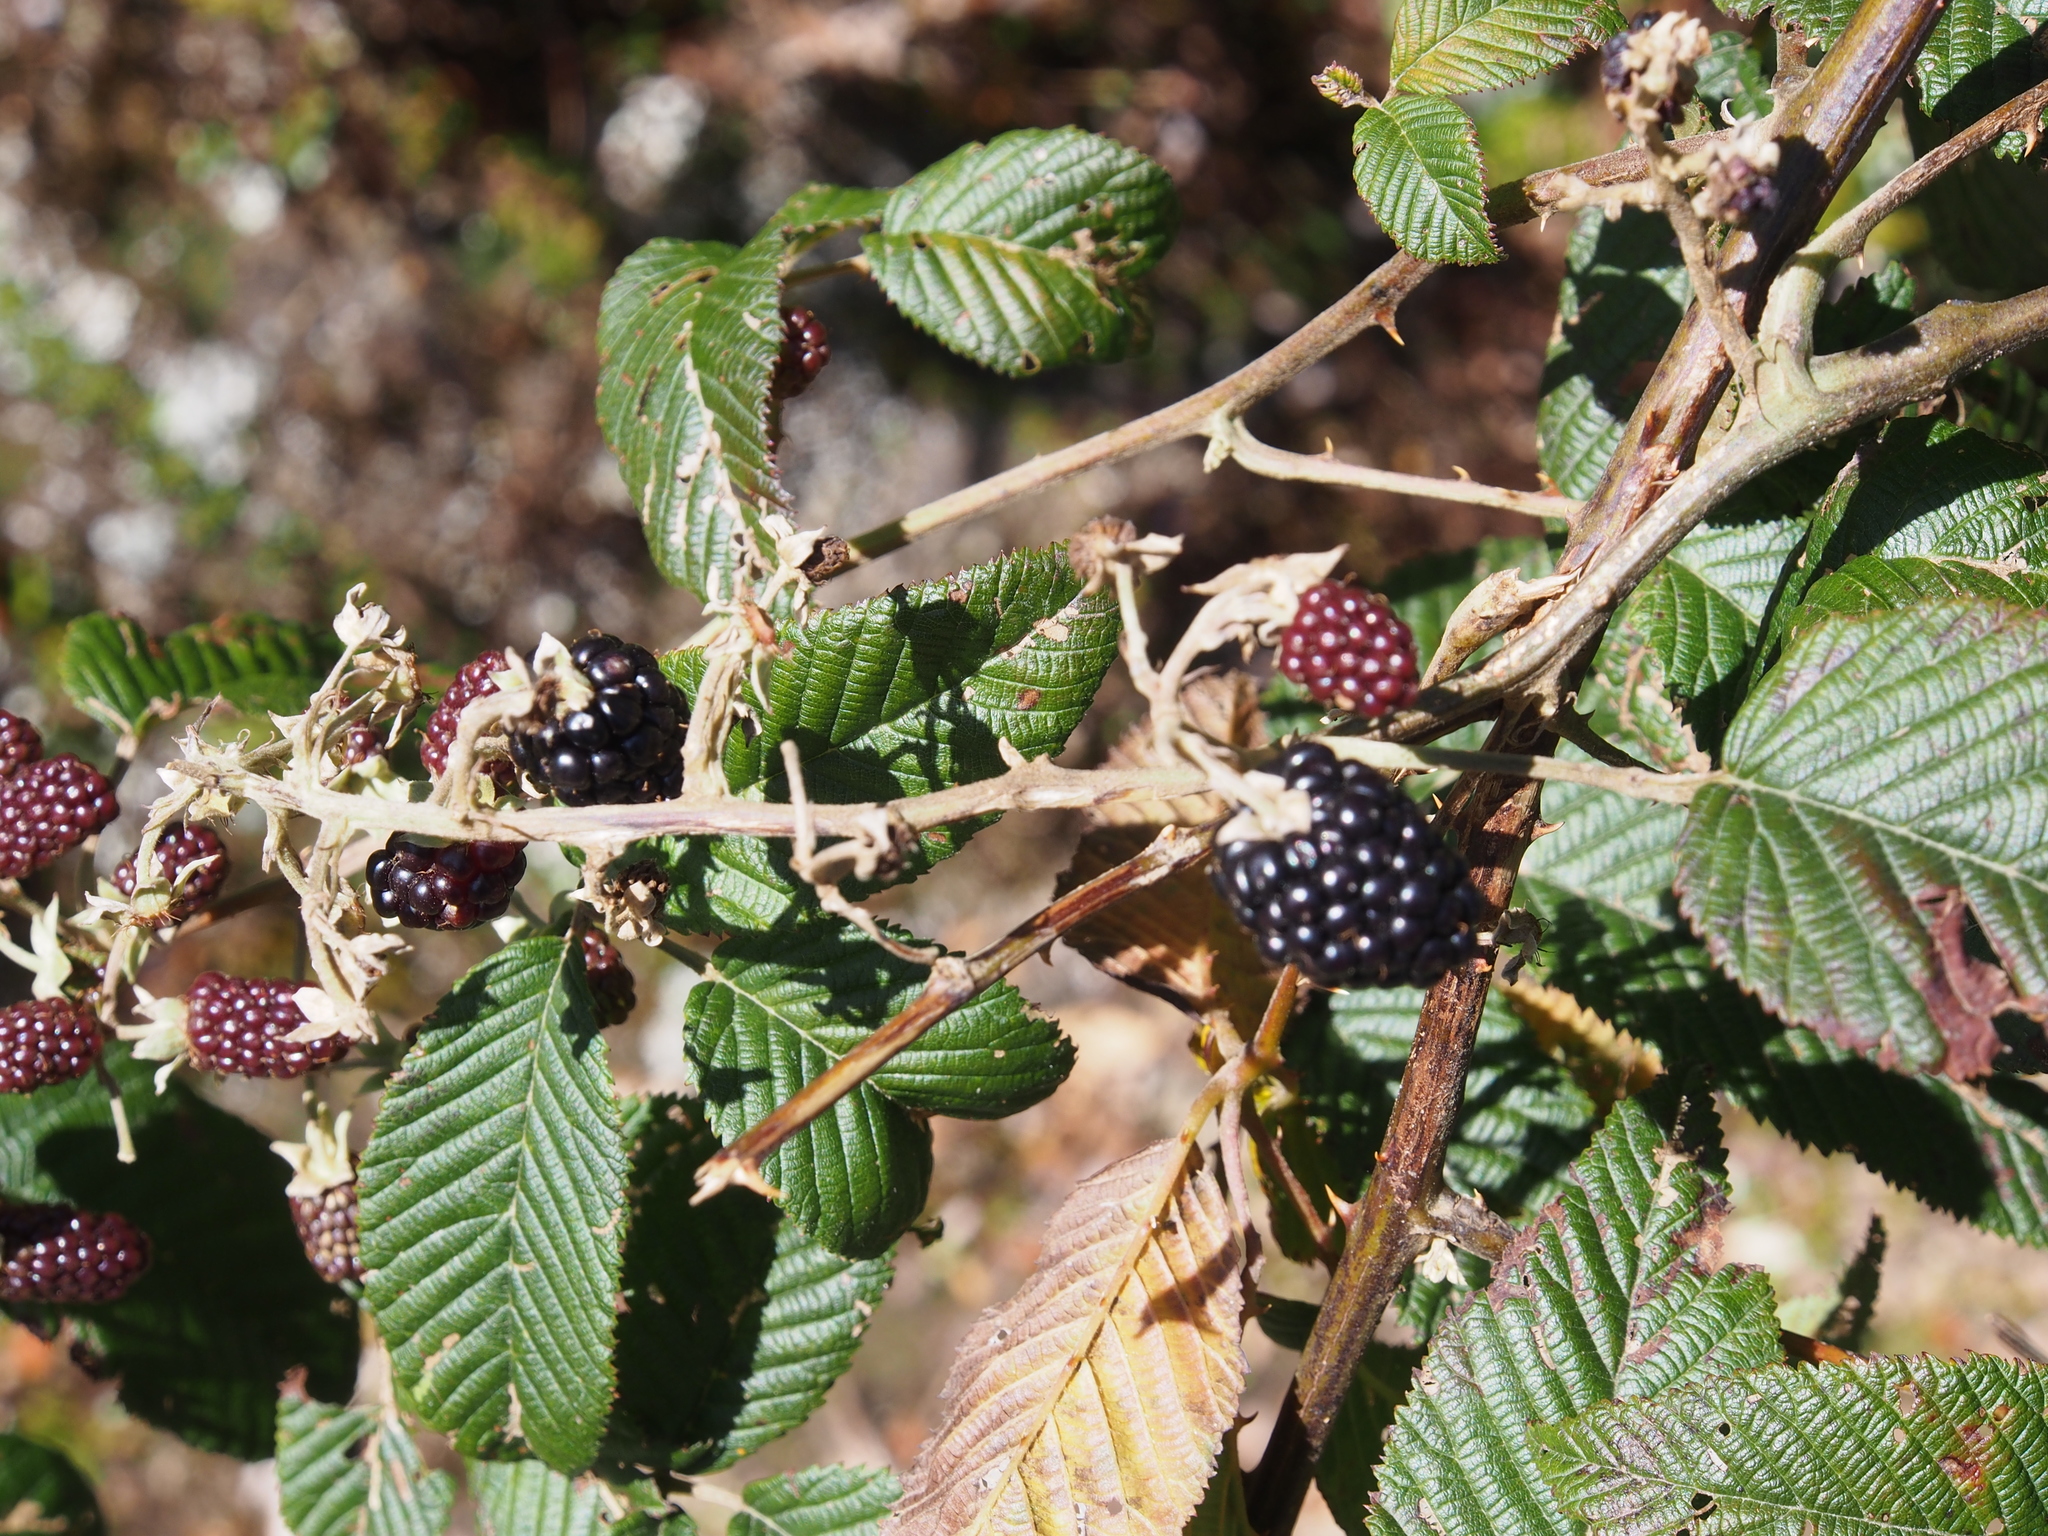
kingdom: Plantae
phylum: Tracheophyta
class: Magnoliopsida
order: Rosales
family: Rosaceae
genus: Rubus
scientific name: Rubus glaucus
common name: Andean blackberry
